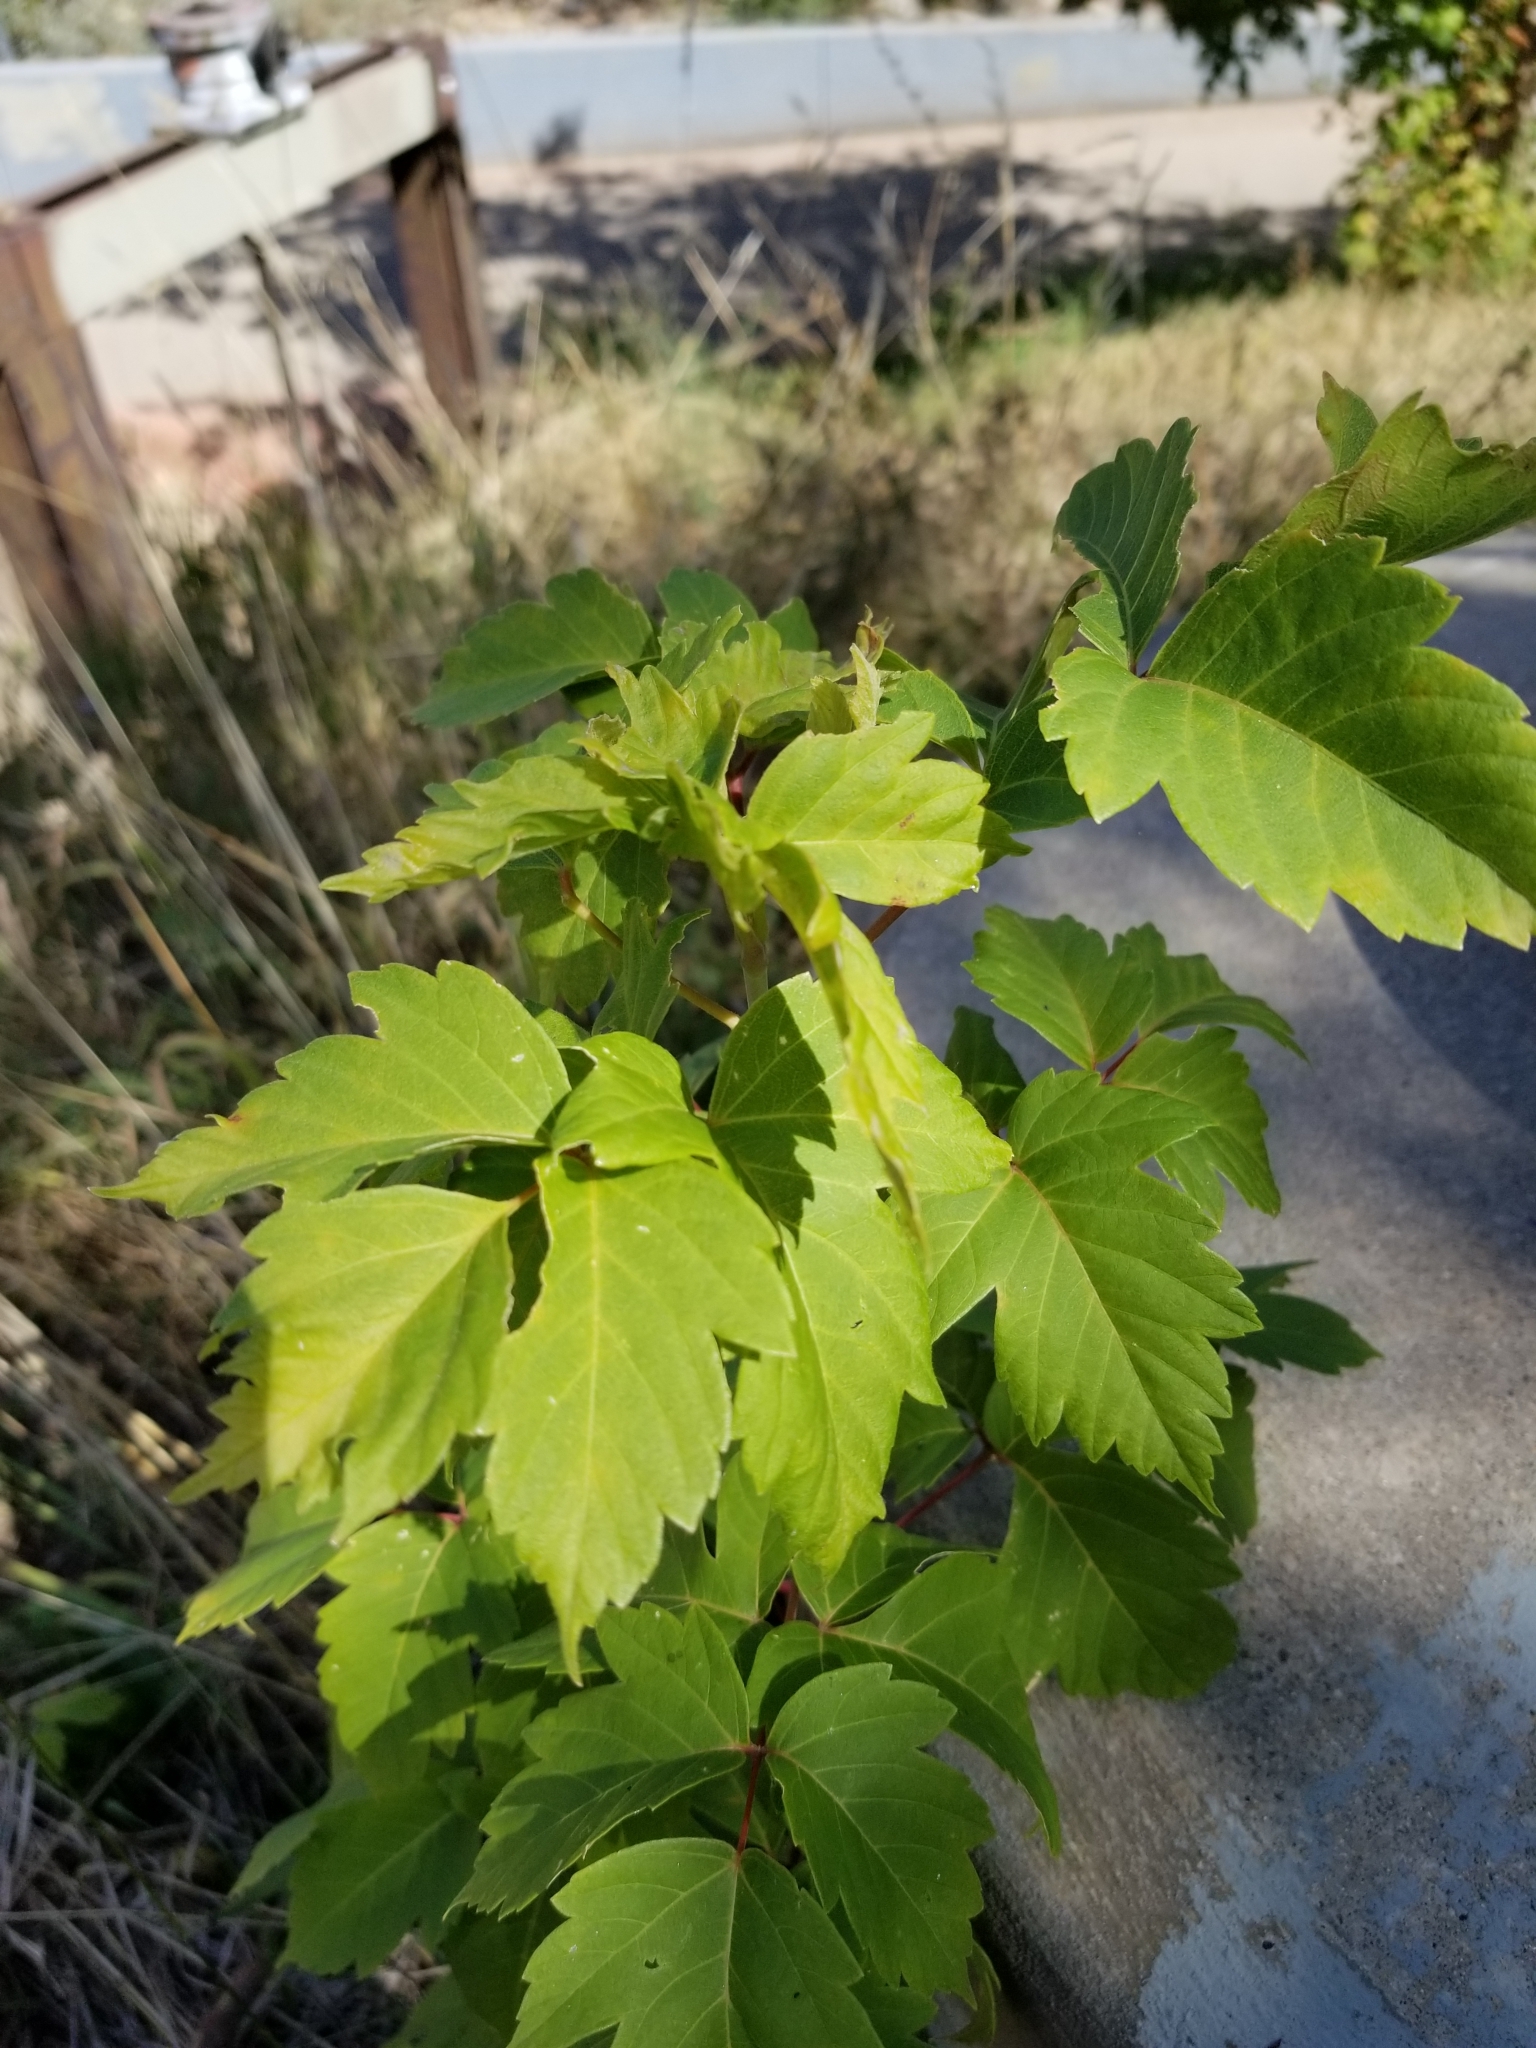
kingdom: Plantae
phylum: Tracheophyta
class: Magnoliopsida
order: Sapindales
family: Sapindaceae
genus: Acer
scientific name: Acer negundo
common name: Ashleaf maple
